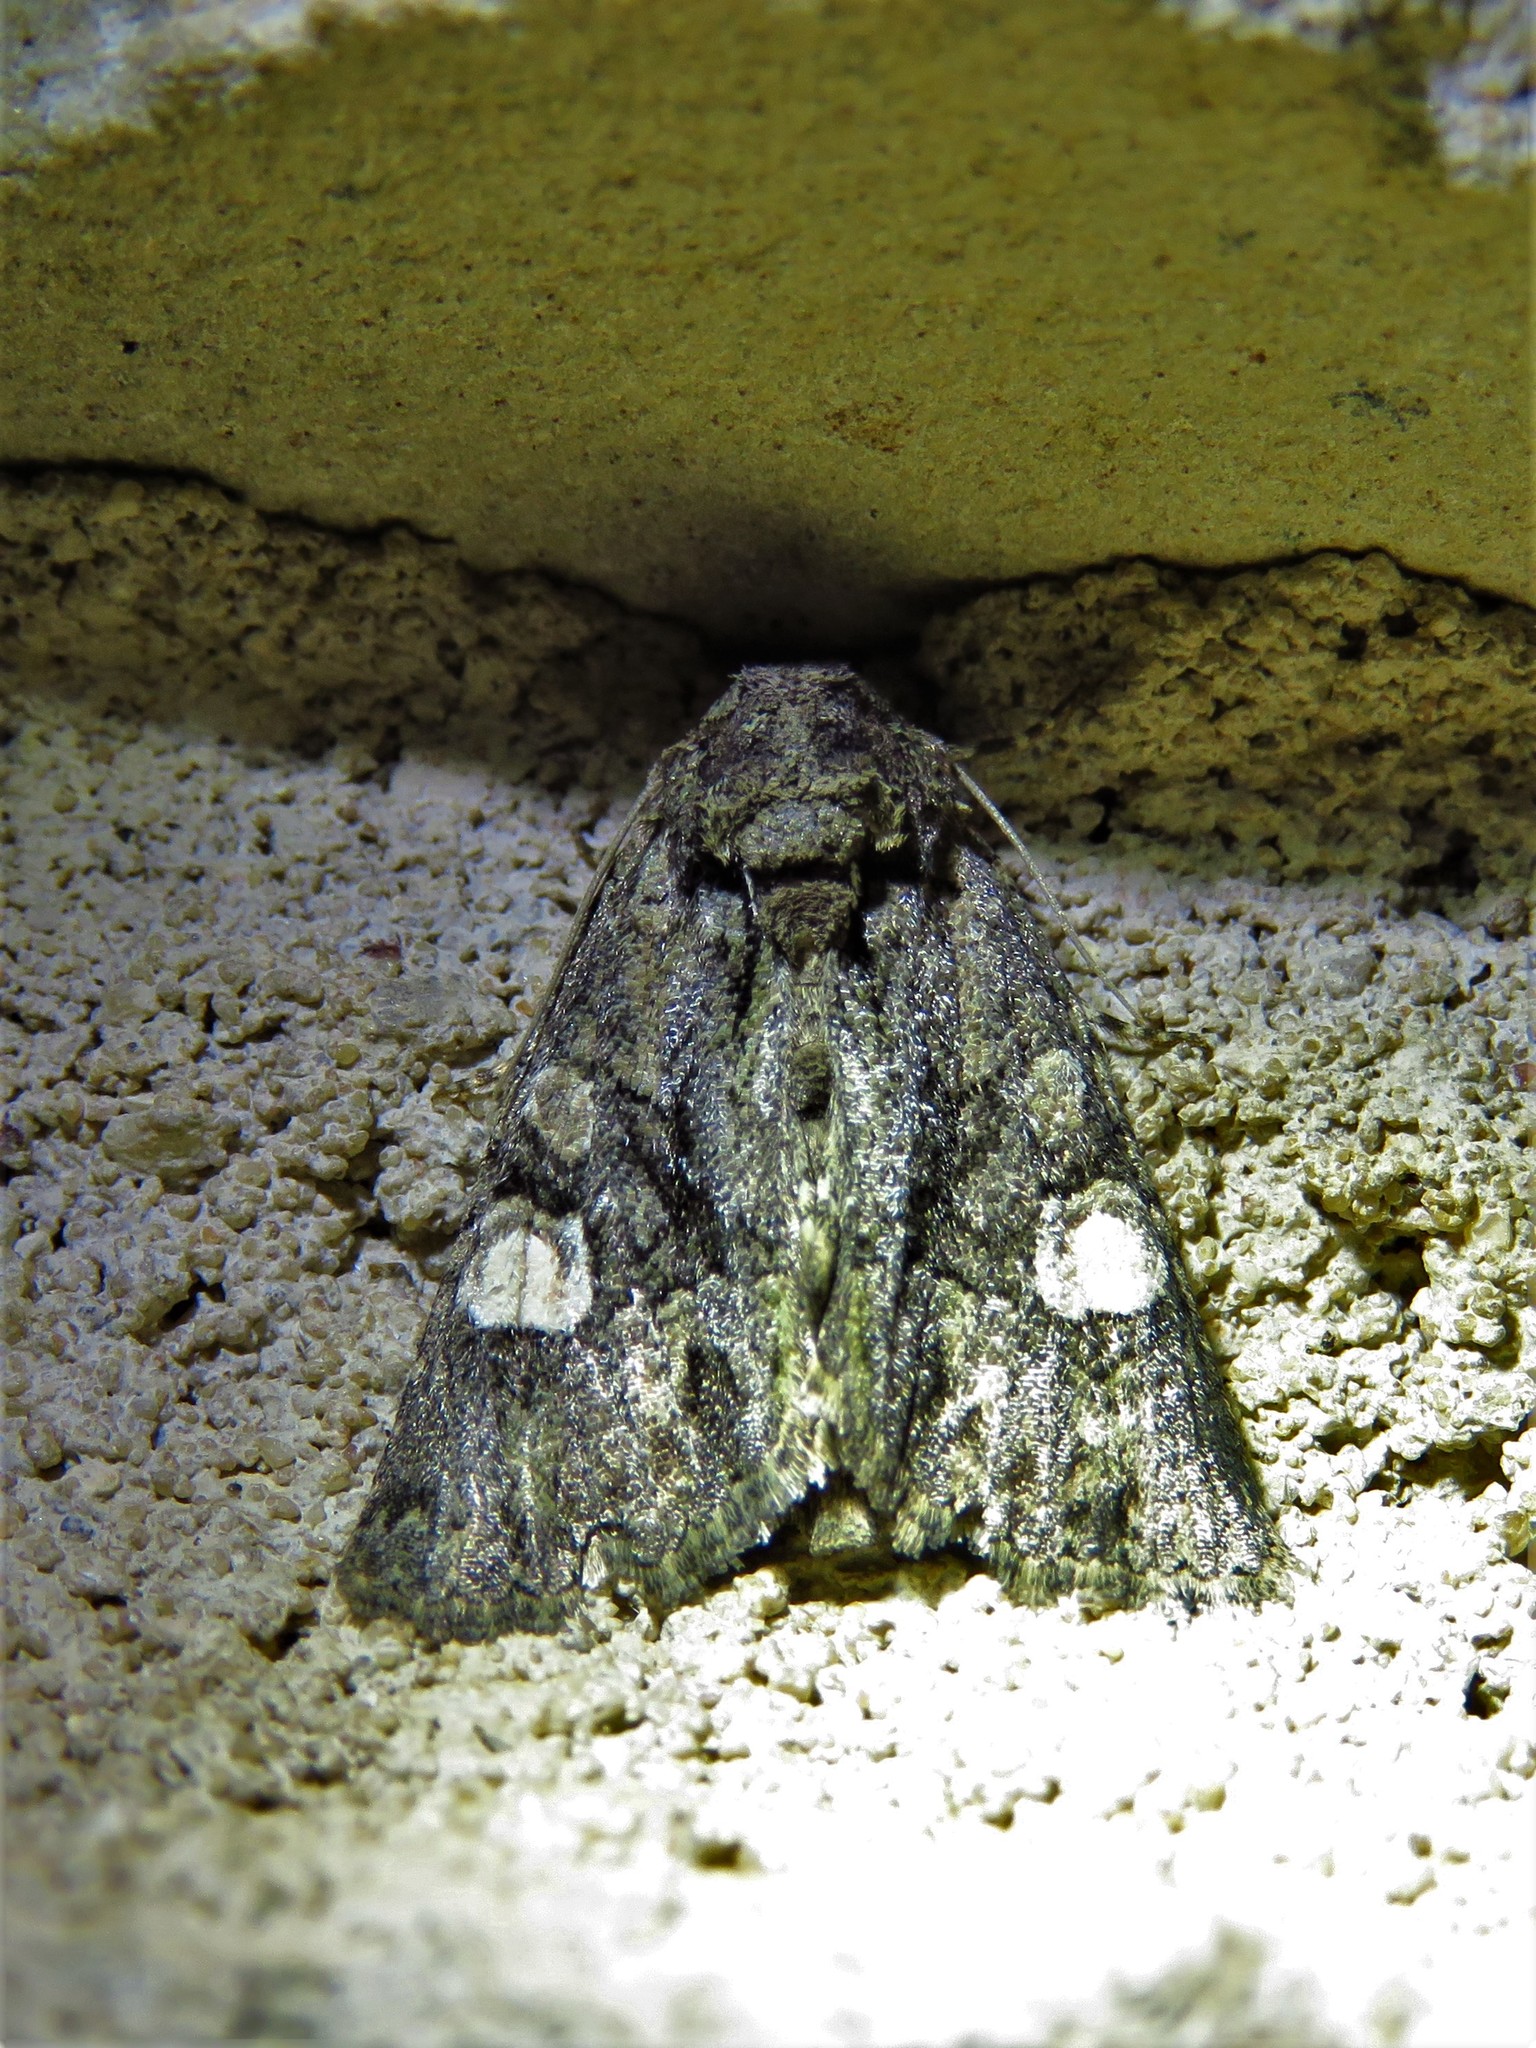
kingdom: Animalia
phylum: Arthropoda
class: Insecta
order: Lepidoptera
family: Noctuidae
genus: Phosphila
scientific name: Phosphila miselioides
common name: Spotted phosphila moth
